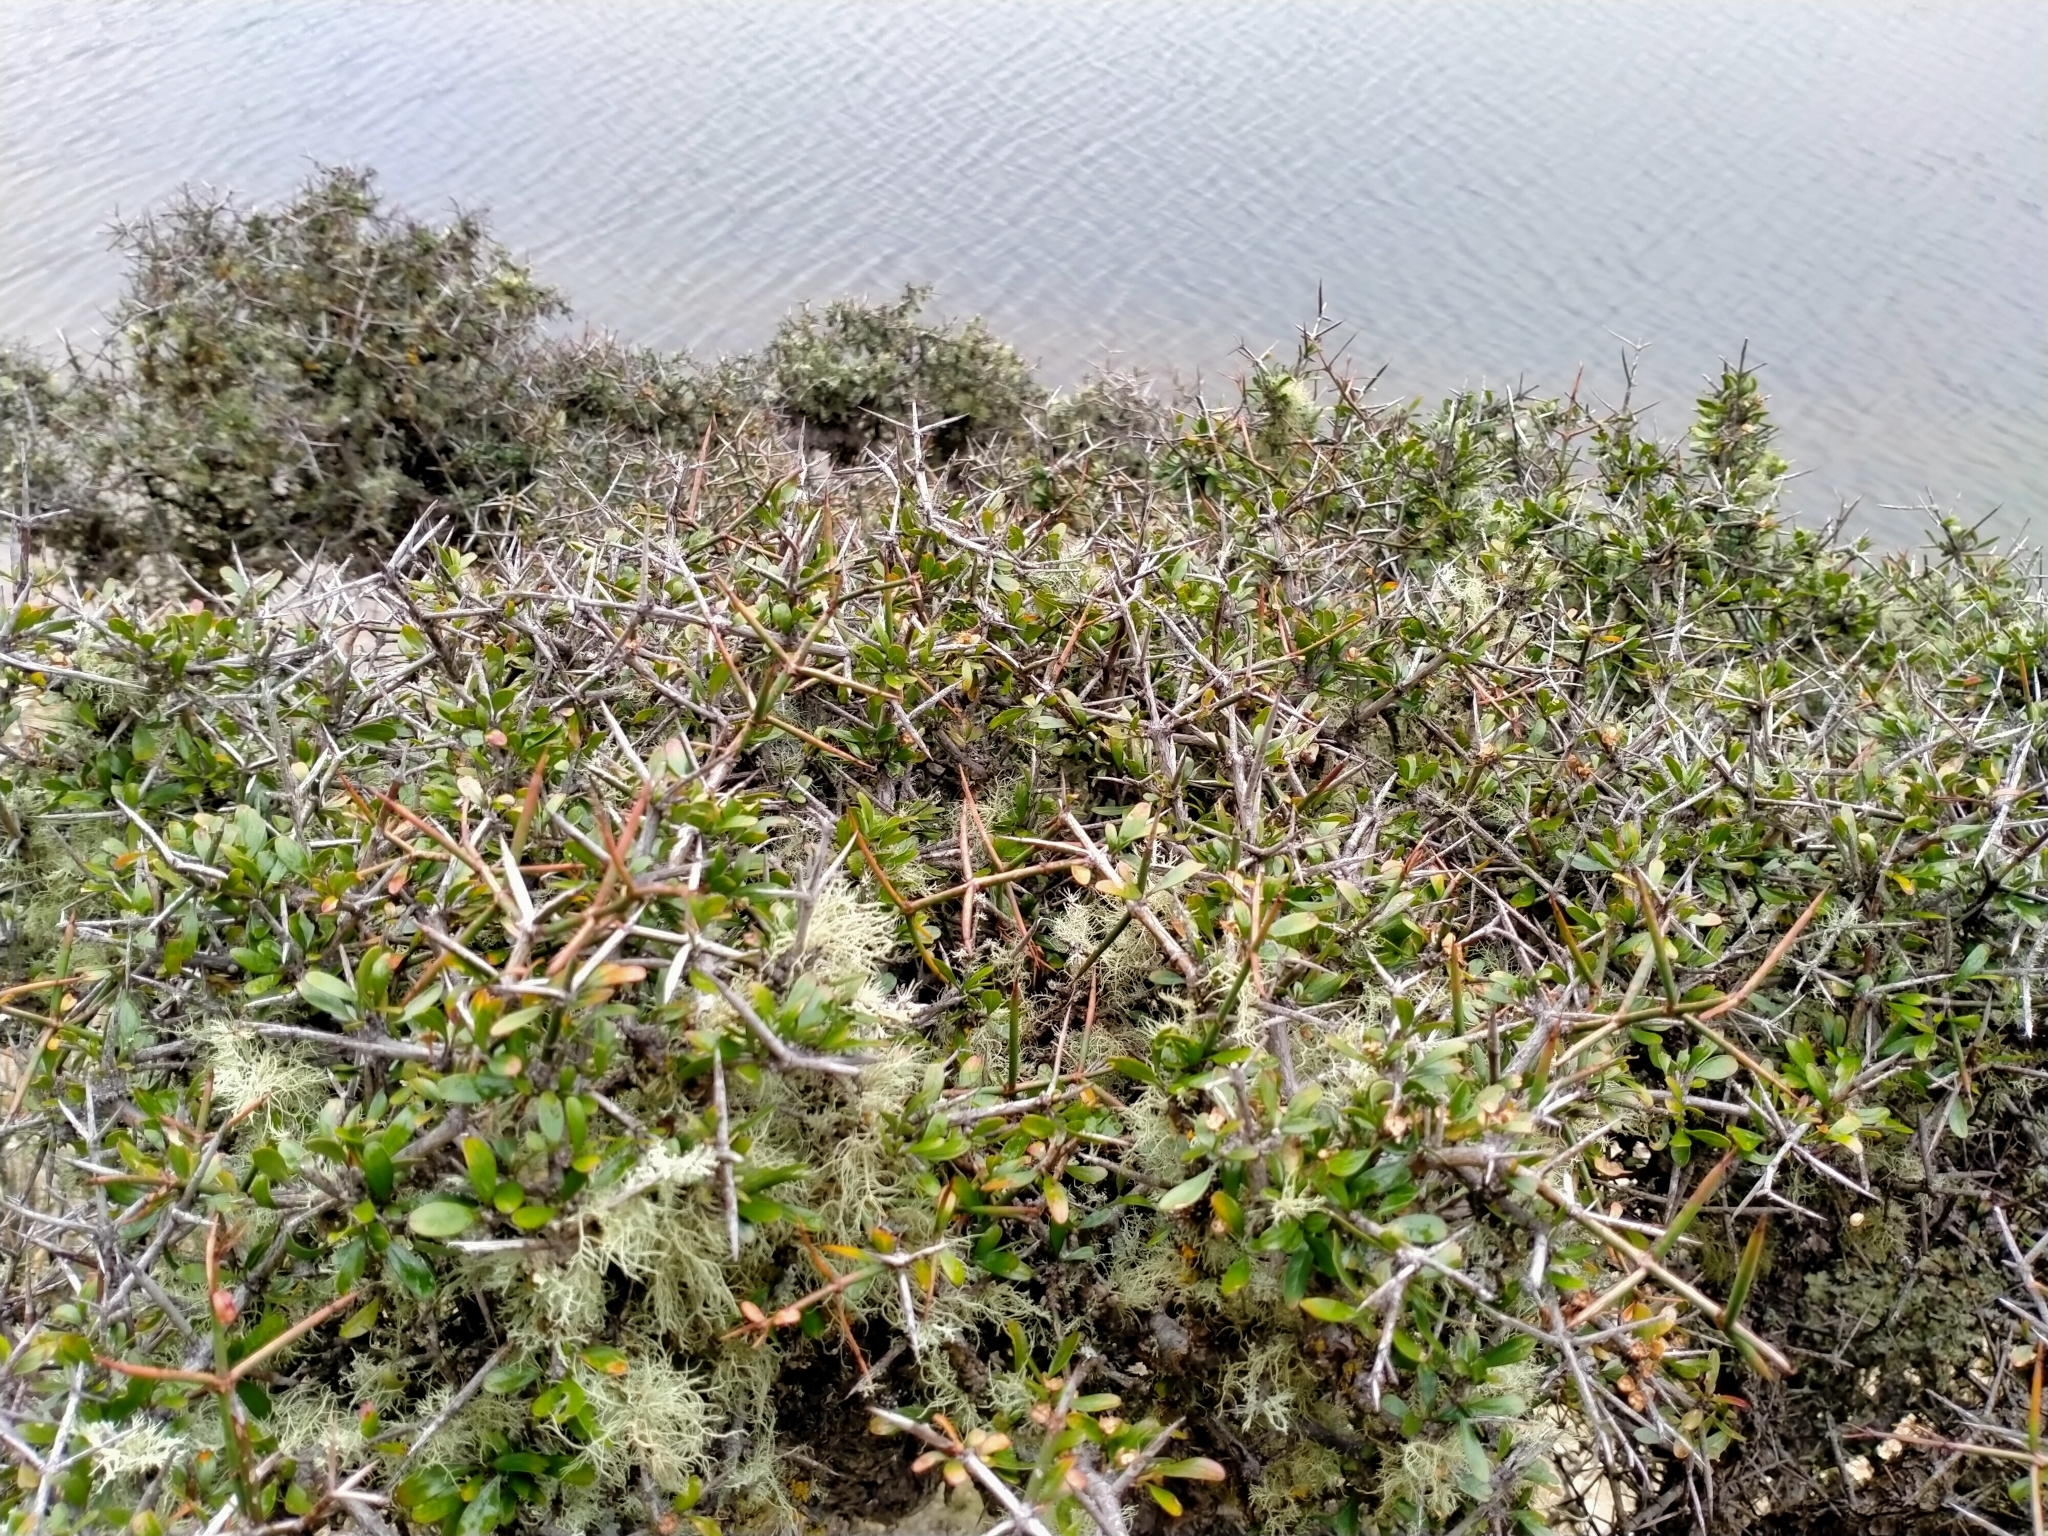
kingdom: Plantae
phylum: Tracheophyta
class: Magnoliopsida
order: Rosales
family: Rhamnaceae
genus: Discaria
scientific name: Discaria toumatou
